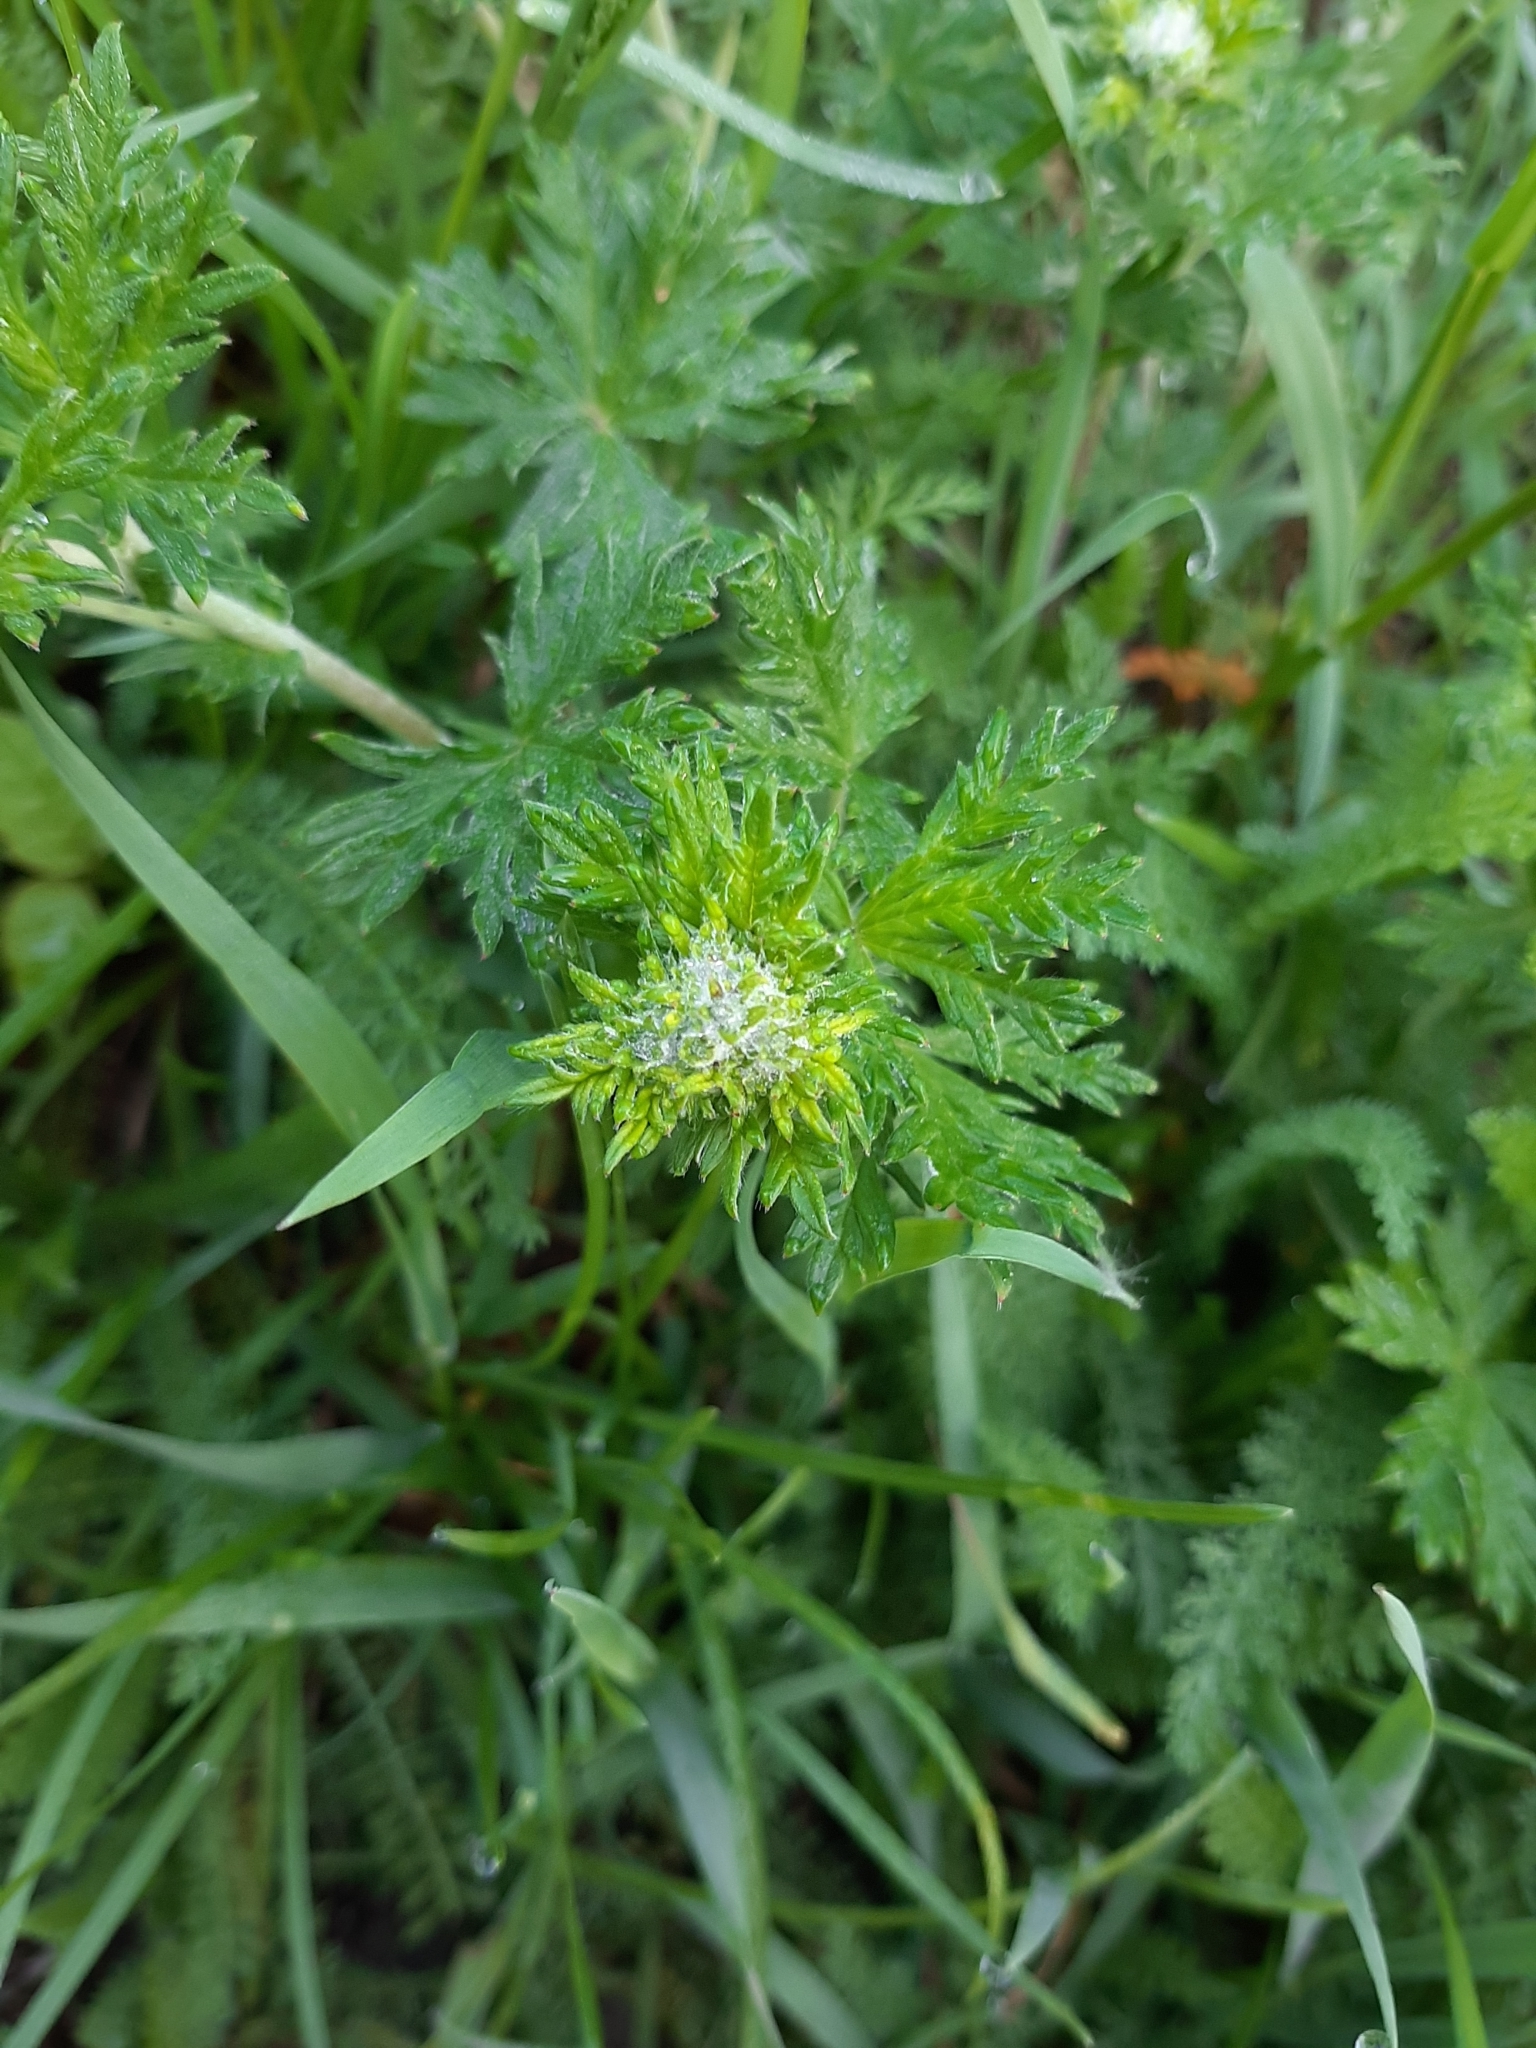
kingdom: Plantae
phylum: Tracheophyta
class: Magnoliopsida
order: Rosales
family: Rosaceae
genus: Potentilla
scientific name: Potentilla argentea
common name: Hoary cinquefoil
